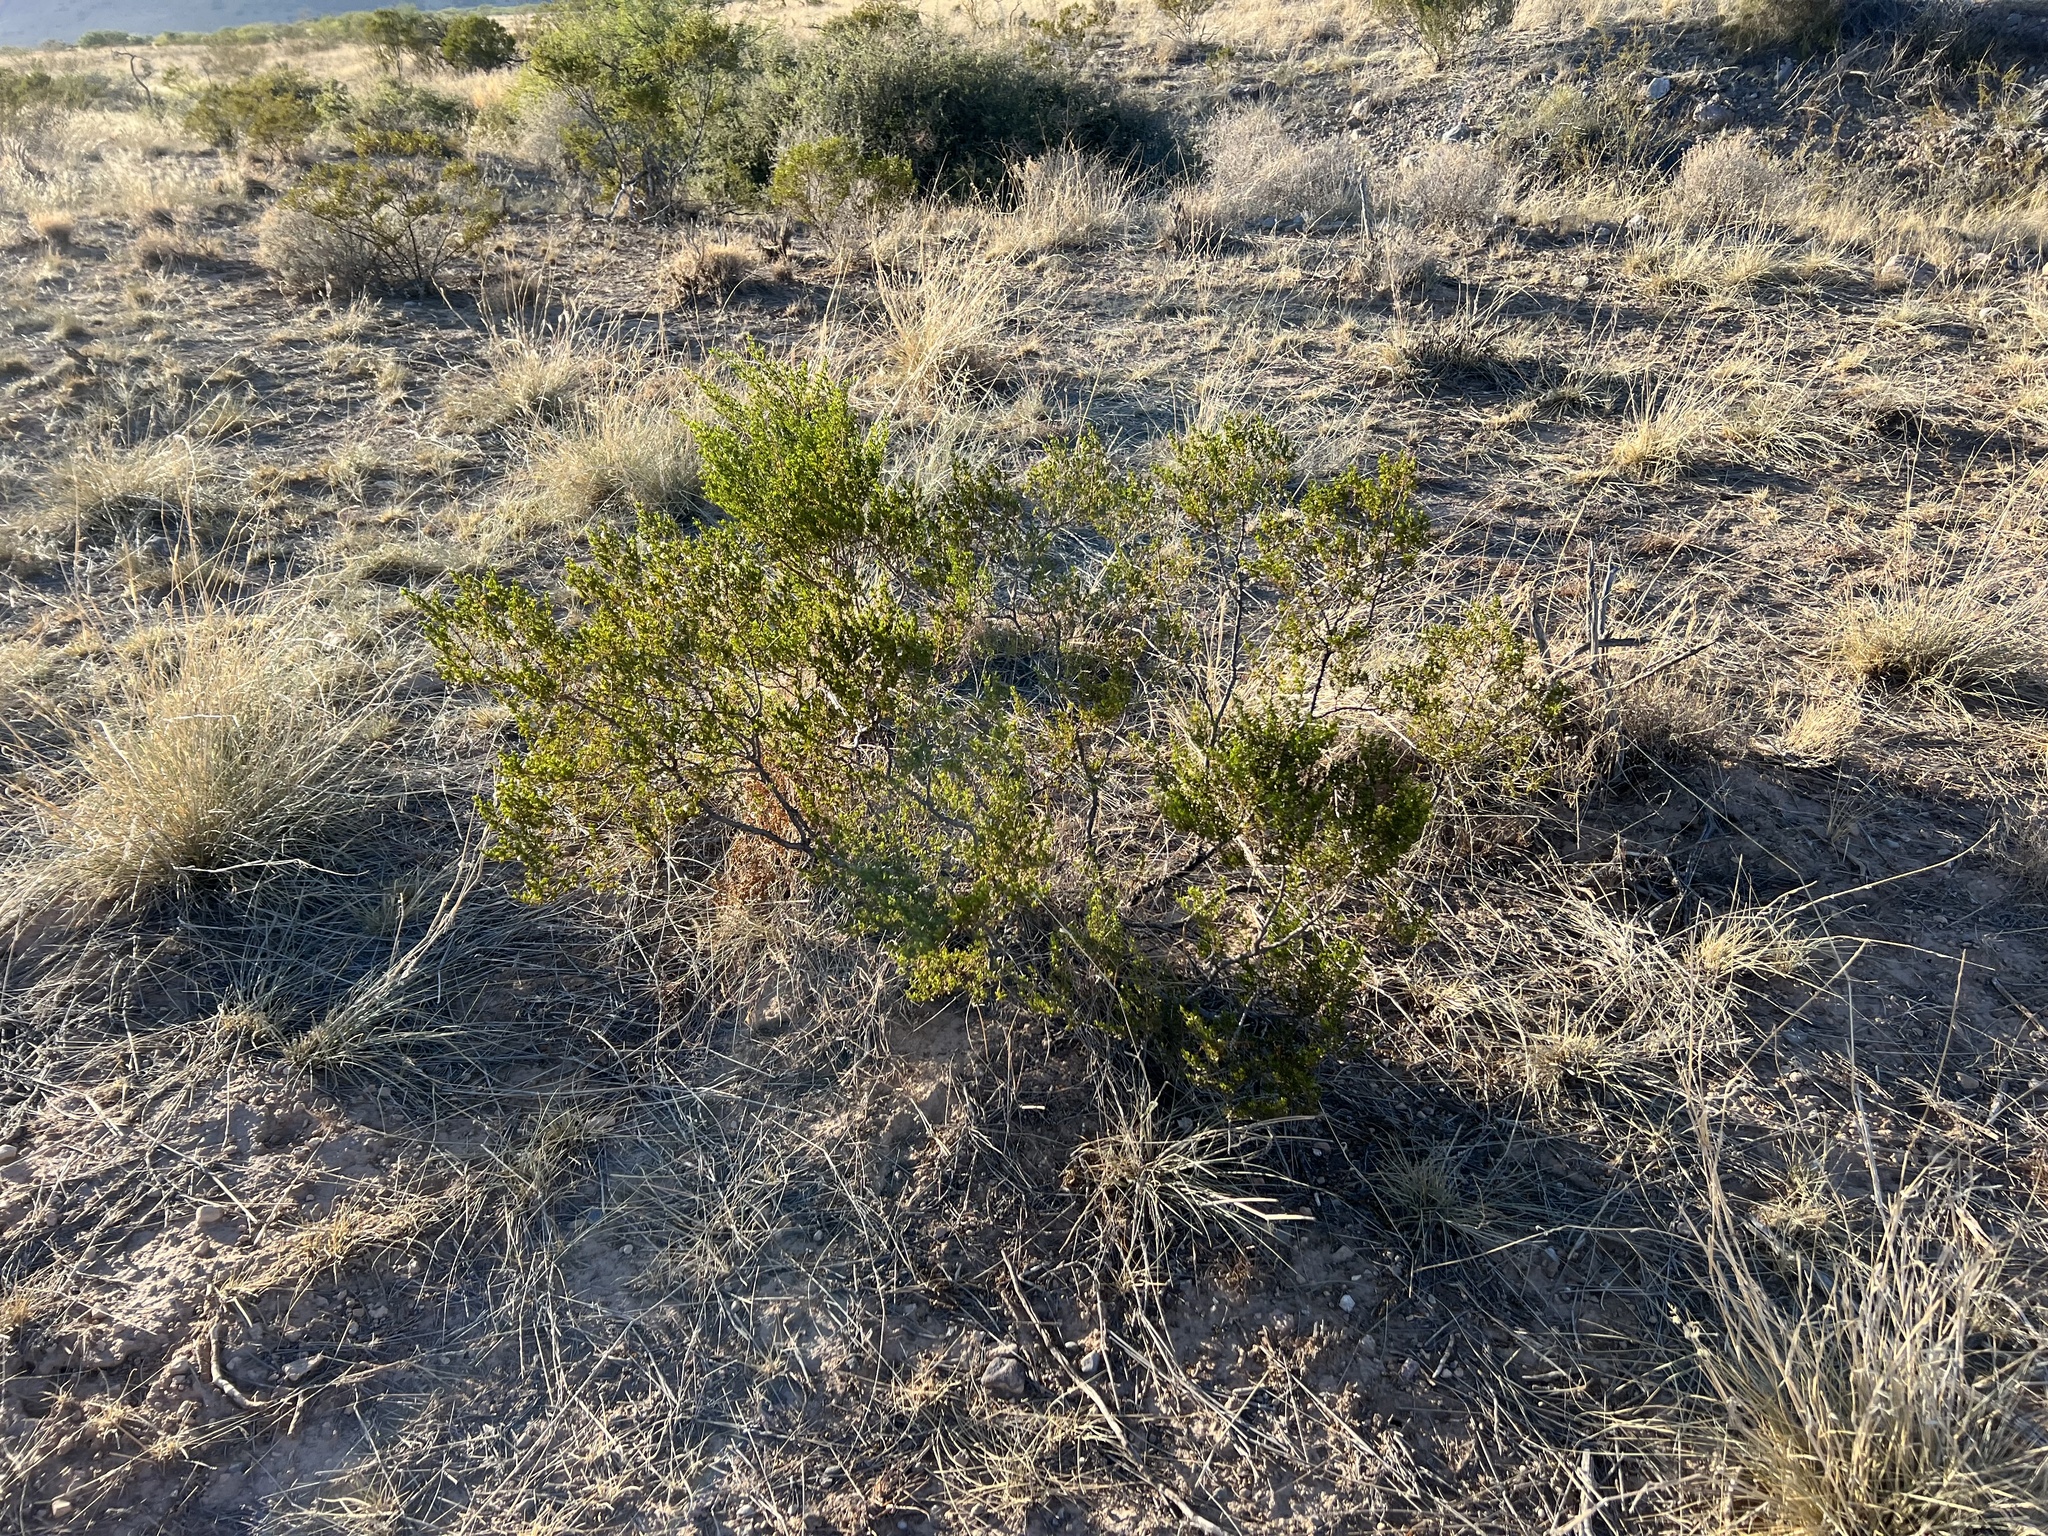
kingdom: Plantae
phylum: Tracheophyta
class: Magnoliopsida
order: Zygophyllales
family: Zygophyllaceae
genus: Larrea
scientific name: Larrea tridentata
